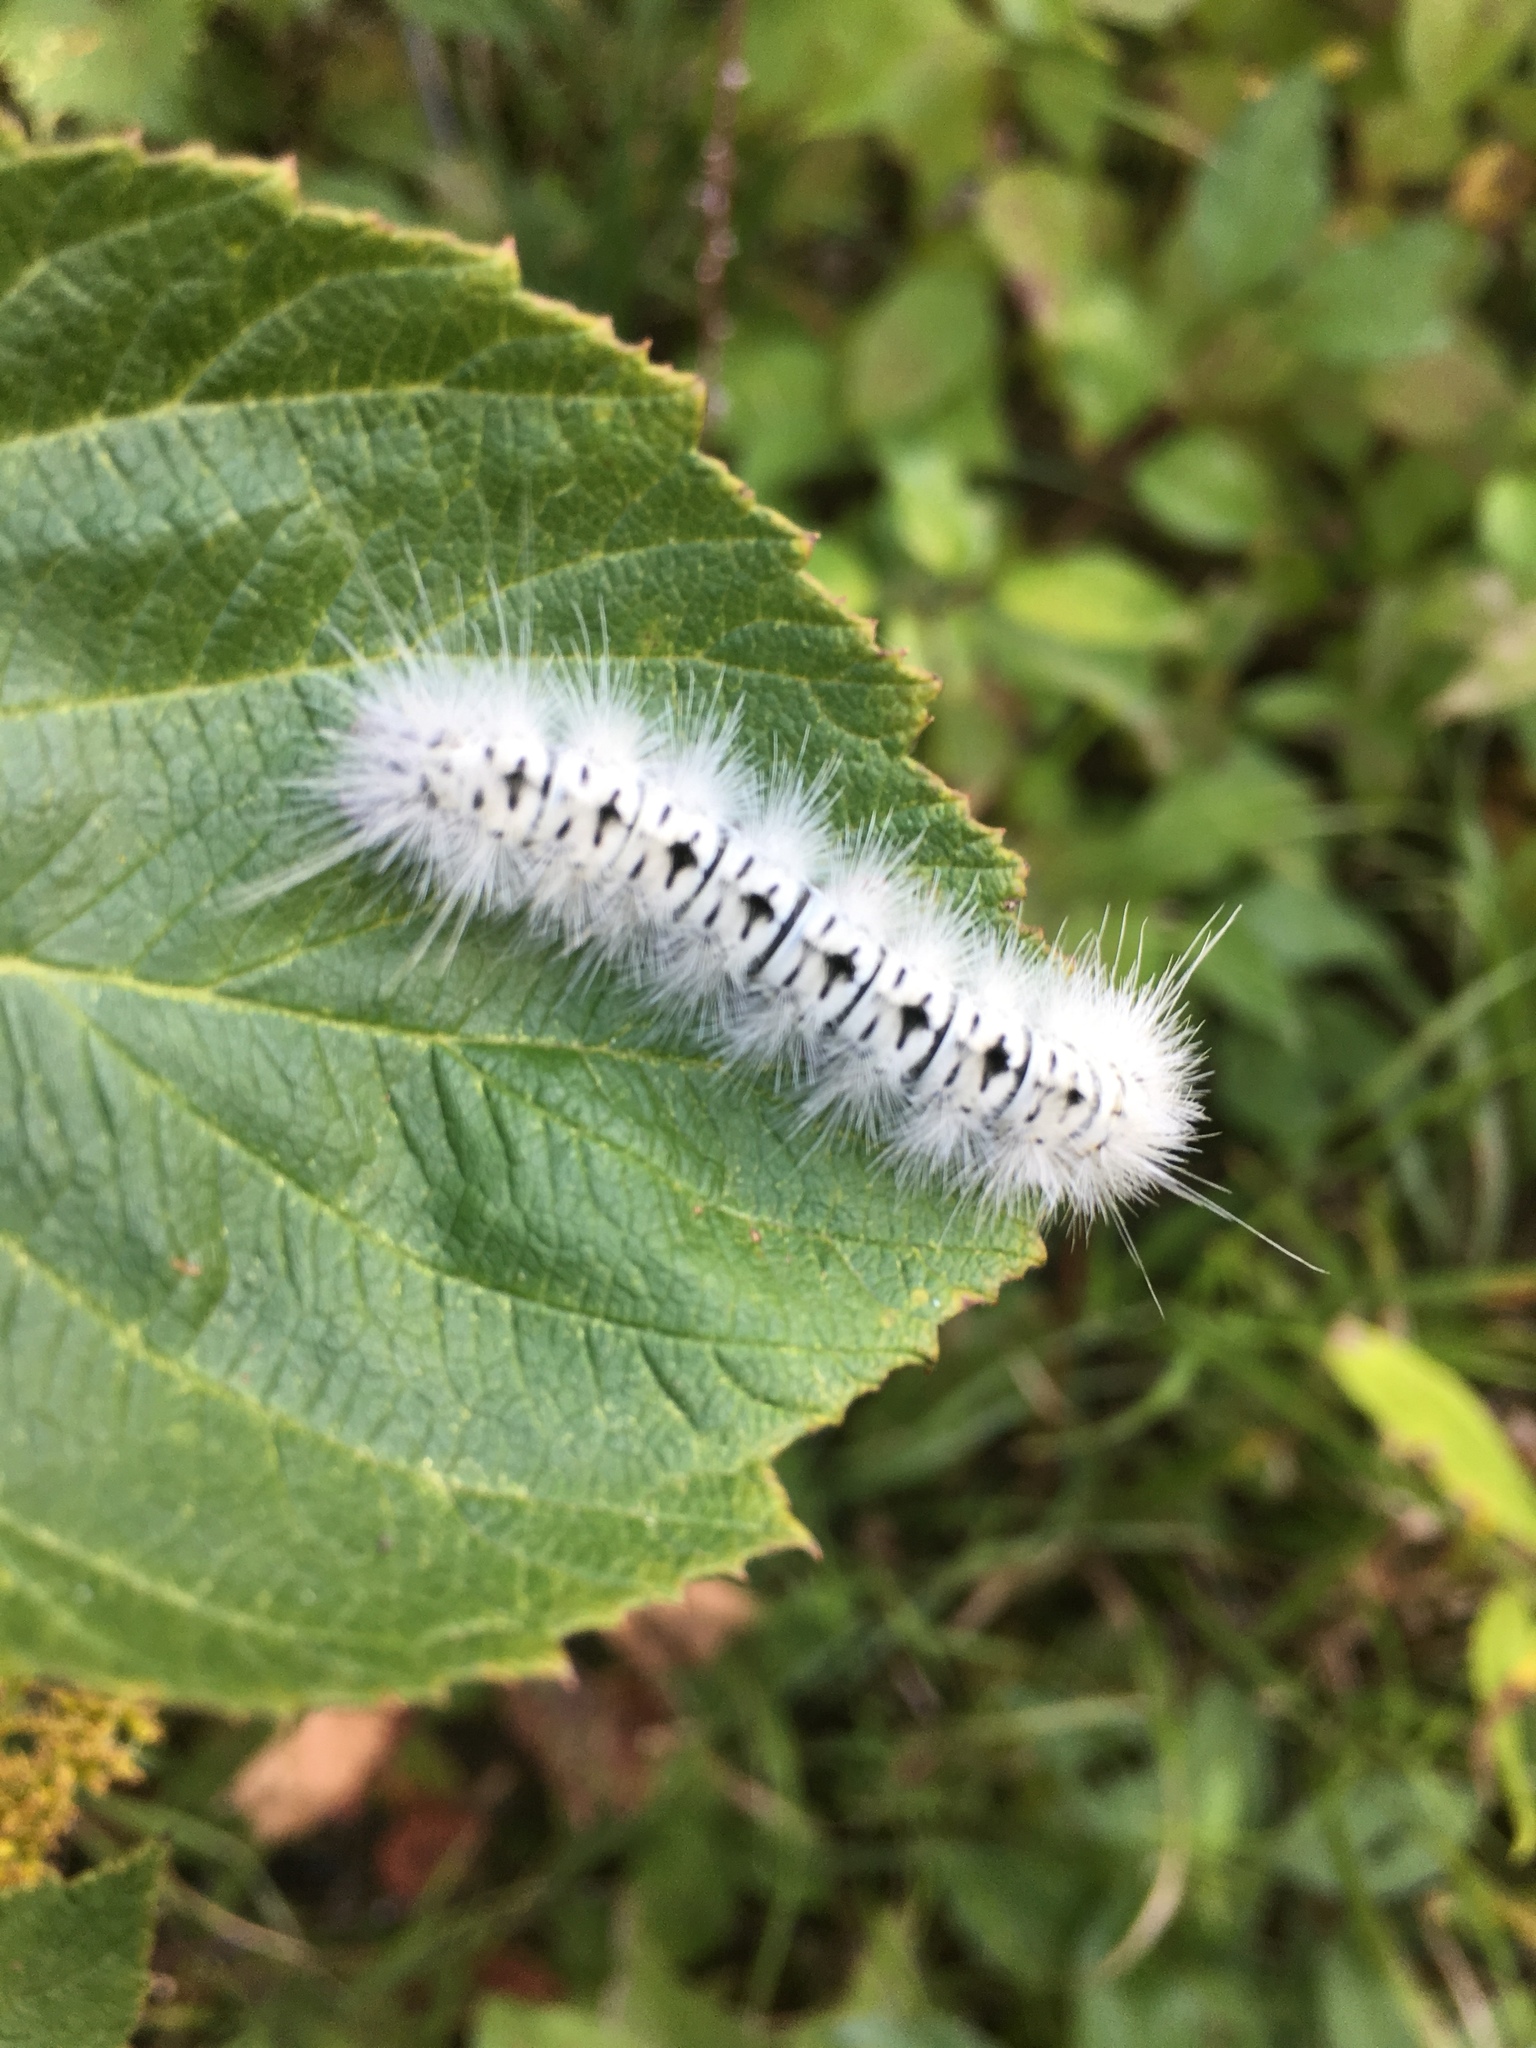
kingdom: Animalia
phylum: Arthropoda
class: Insecta
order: Lepidoptera
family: Erebidae
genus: Lophocampa
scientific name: Lophocampa caryae
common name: Hickory tussock moth
